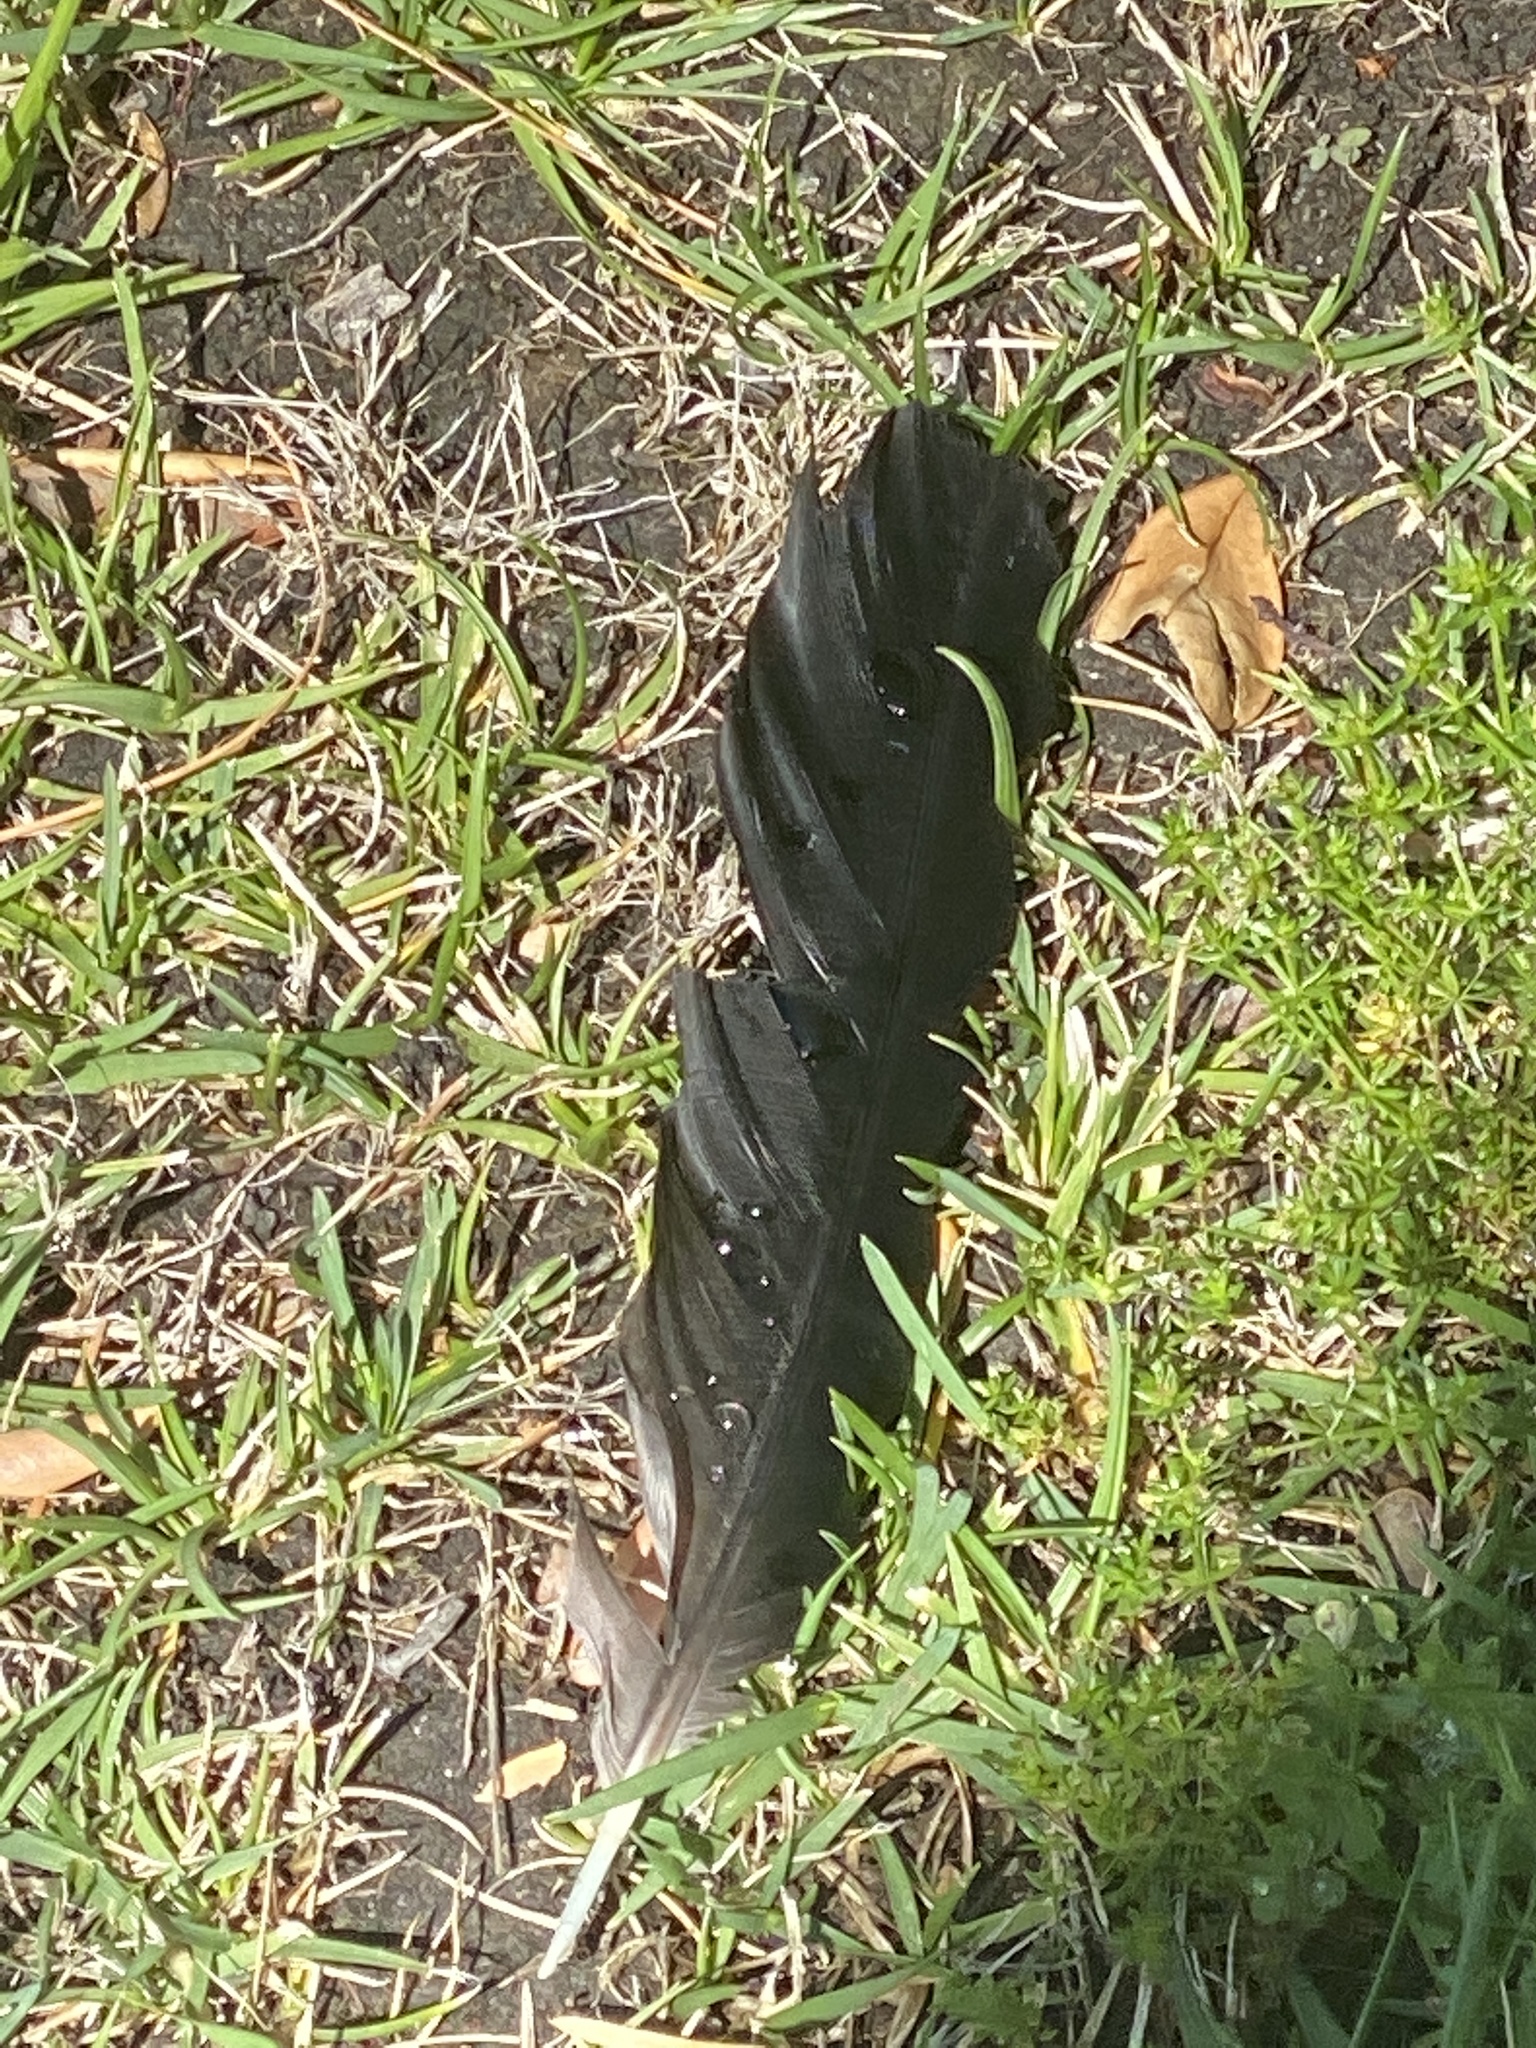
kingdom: Animalia
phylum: Chordata
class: Aves
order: Passeriformes
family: Corvidae
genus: Corvus
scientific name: Corvus brachyrhynchos
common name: American crow
